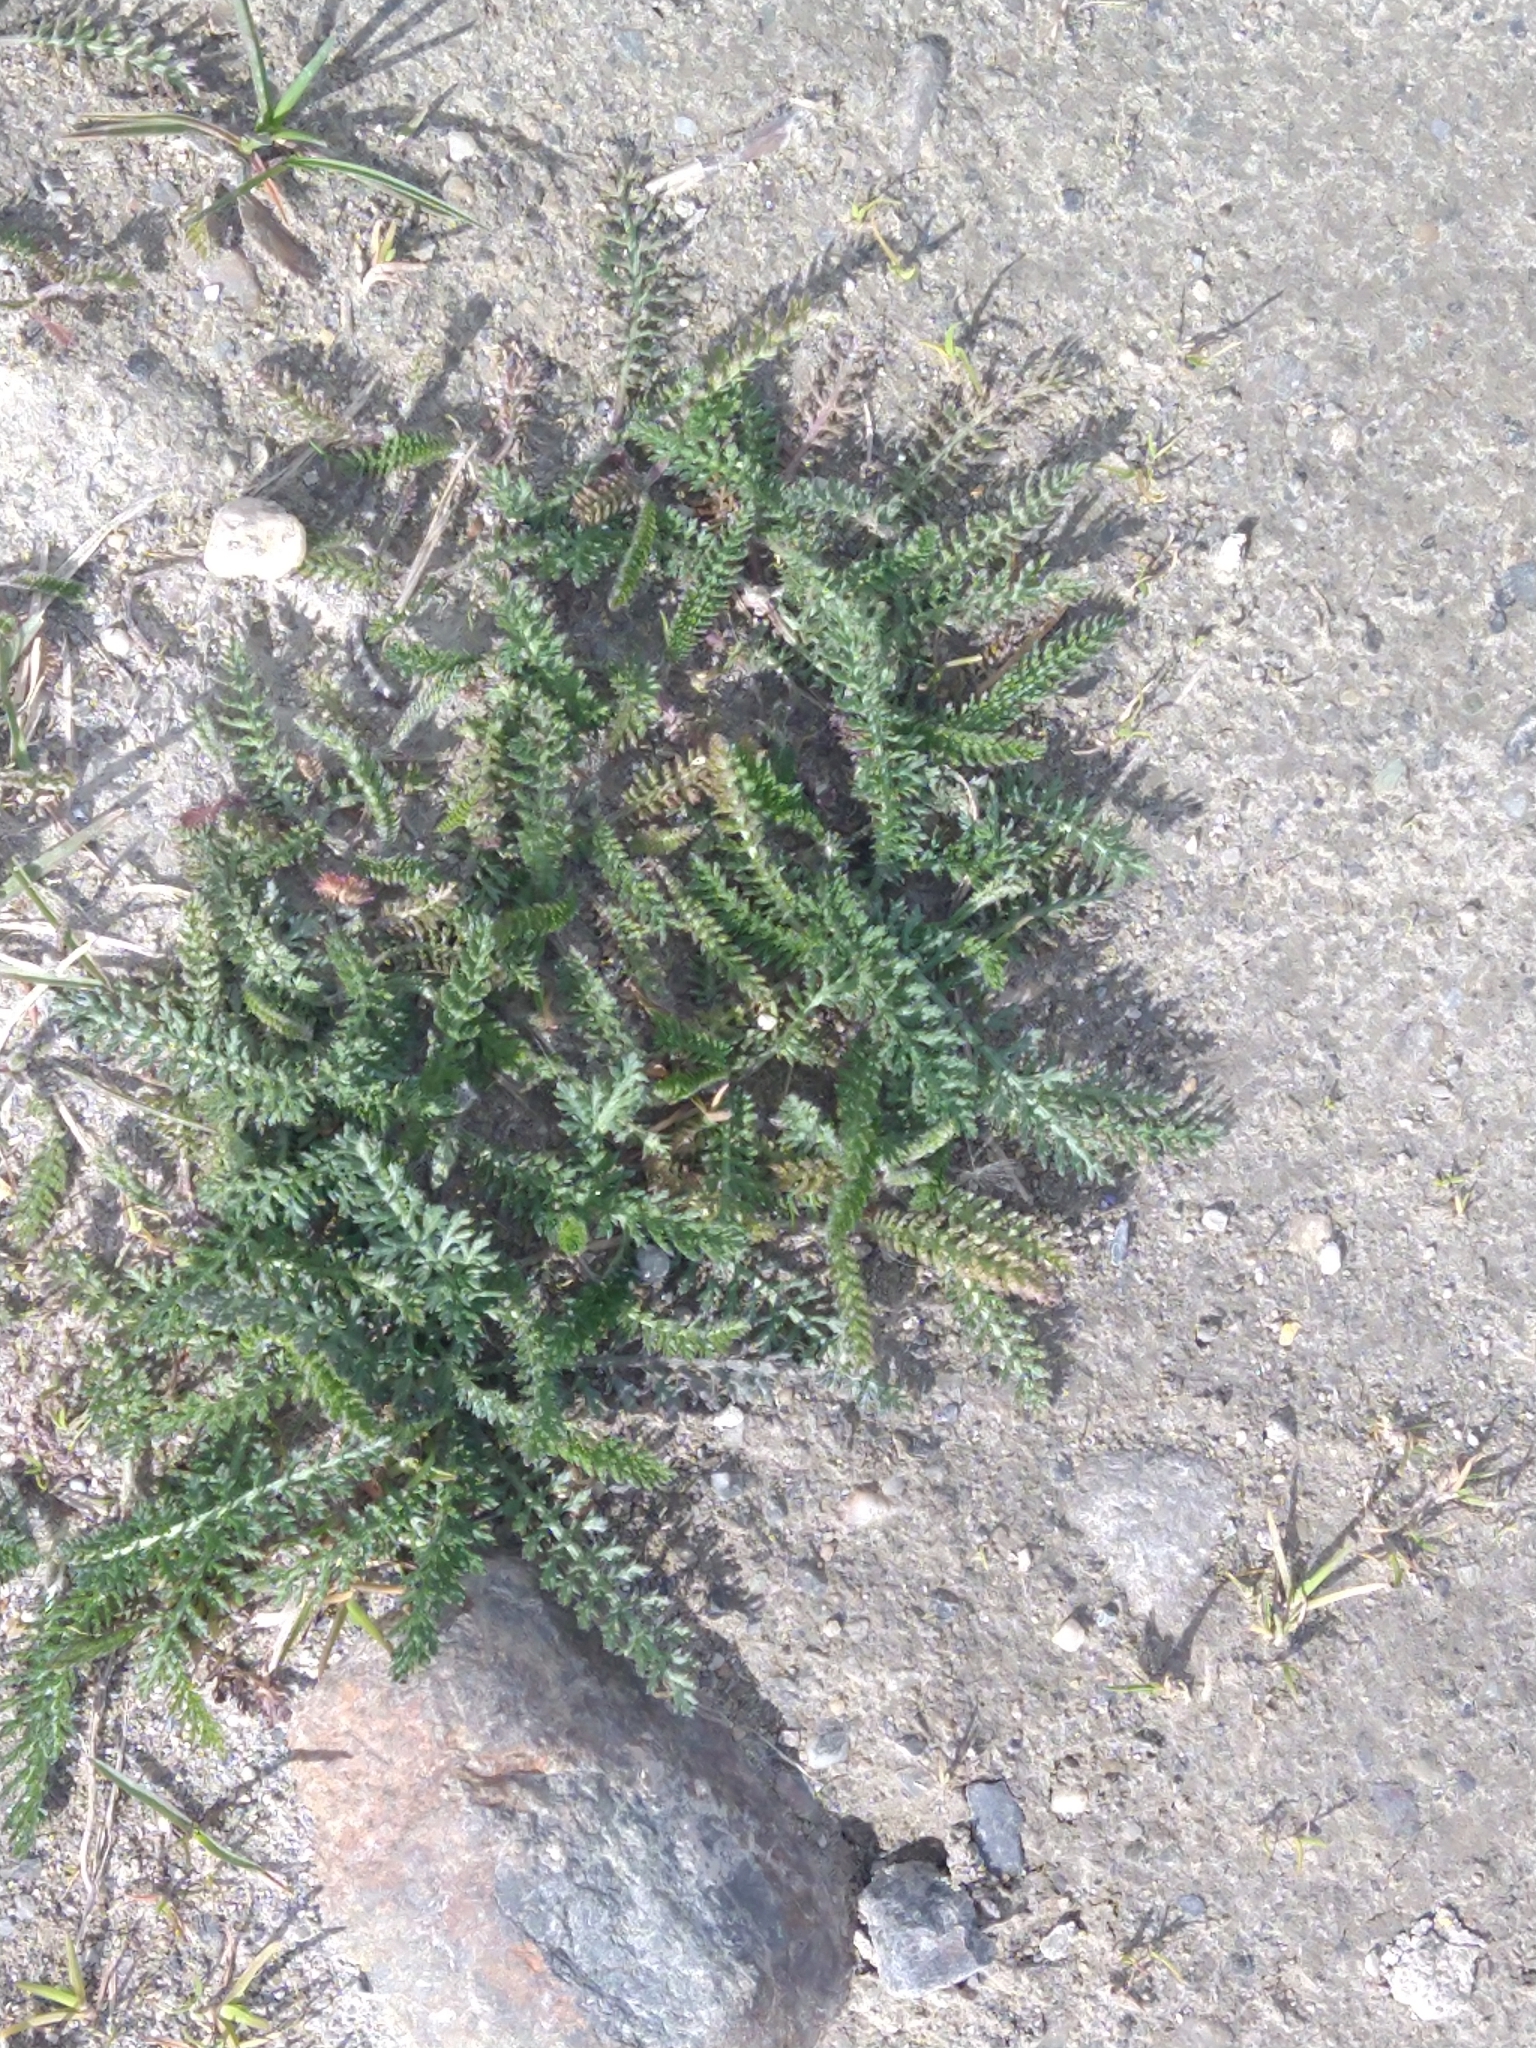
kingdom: Plantae
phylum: Tracheophyta
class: Magnoliopsida
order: Asterales
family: Asteraceae
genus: Achillea
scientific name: Achillea millefolium
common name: Yarrow
